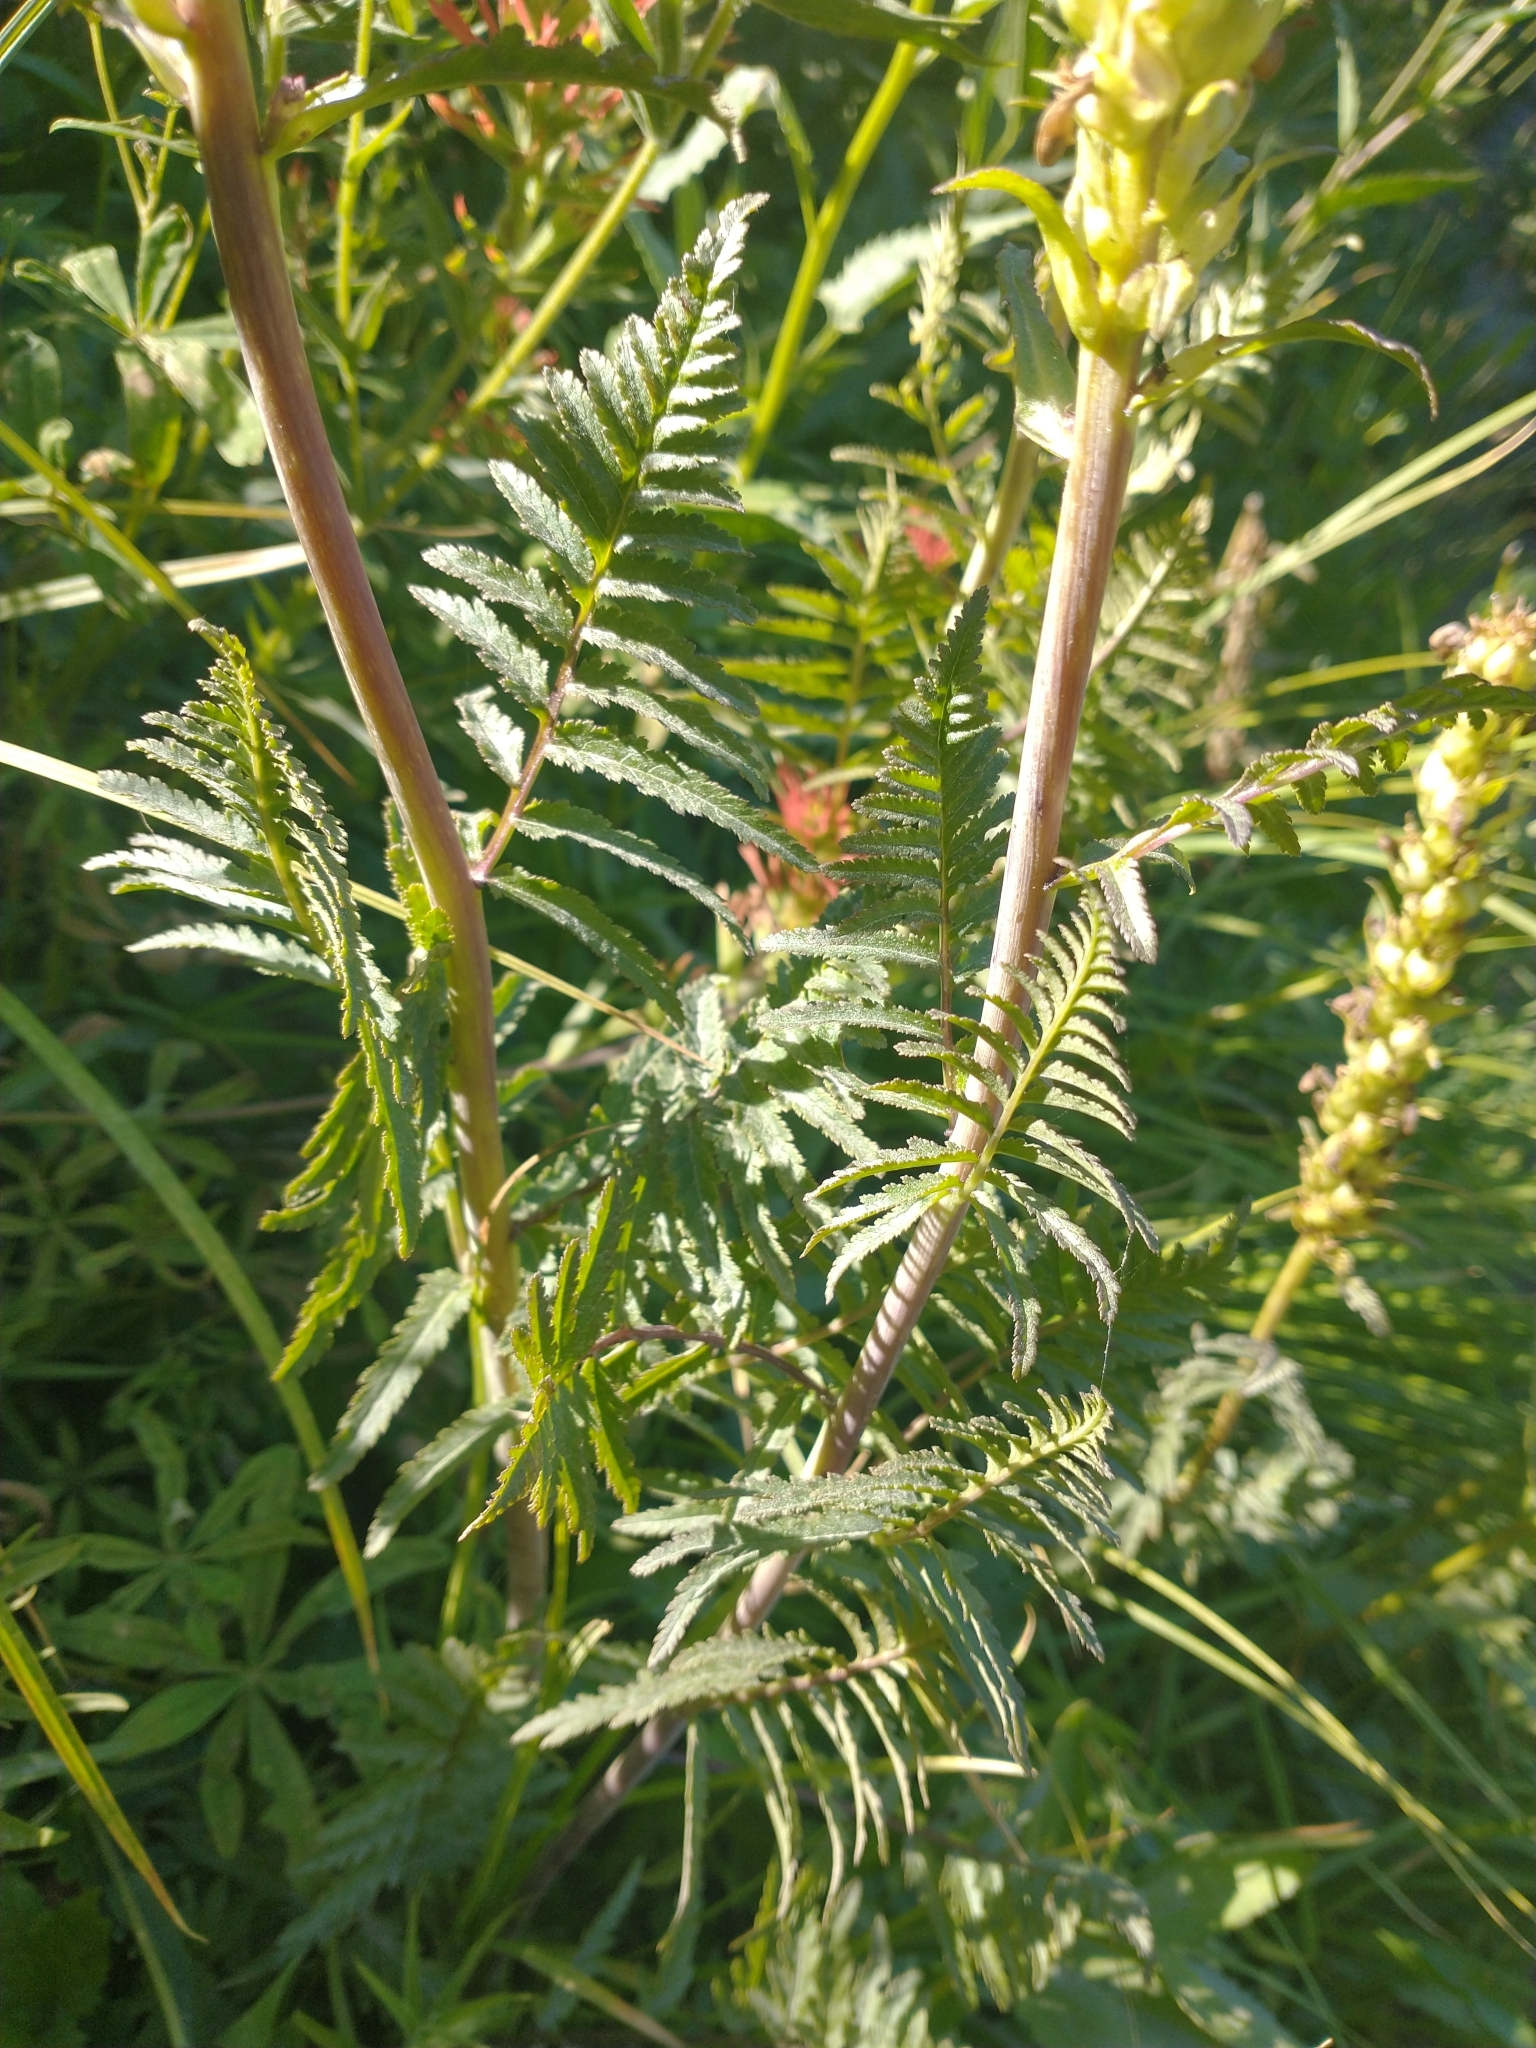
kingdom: Plantae
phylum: Tracheophyta
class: Magnoliopsida
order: Lamiales
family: Orobanchaceae
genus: Pedicularis
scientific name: Pedicularis bracteosa
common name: Bracted lousewort
